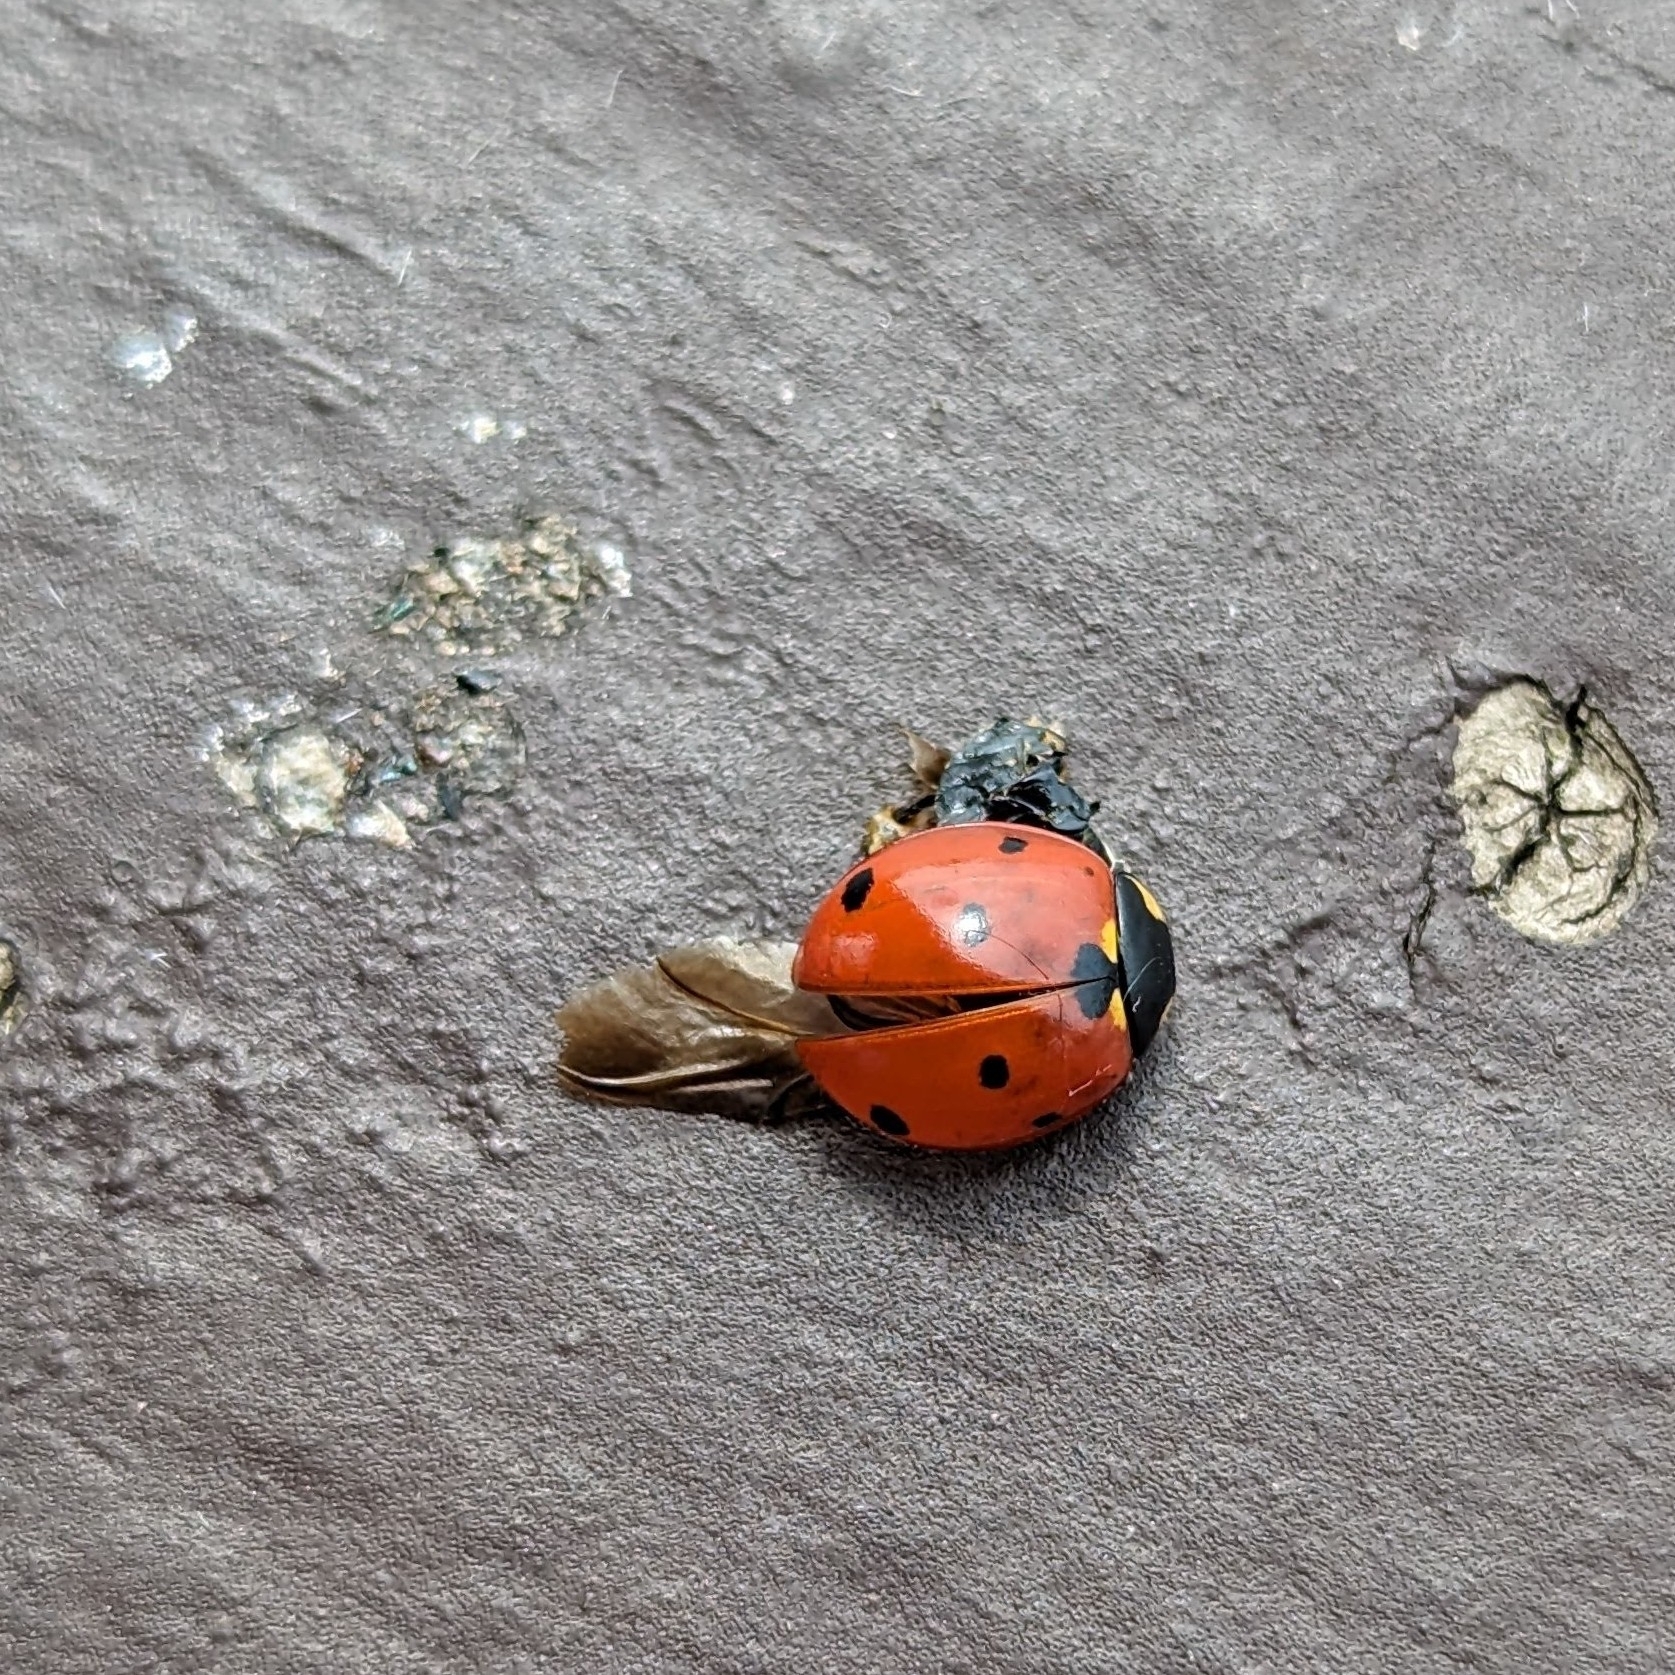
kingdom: Animalia
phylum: Arthropoda
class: Insecta
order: Coleoptera
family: Coccinellidae
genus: Coccinella
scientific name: Coccinella septempunctata
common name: Sevenspotted lady beetle
